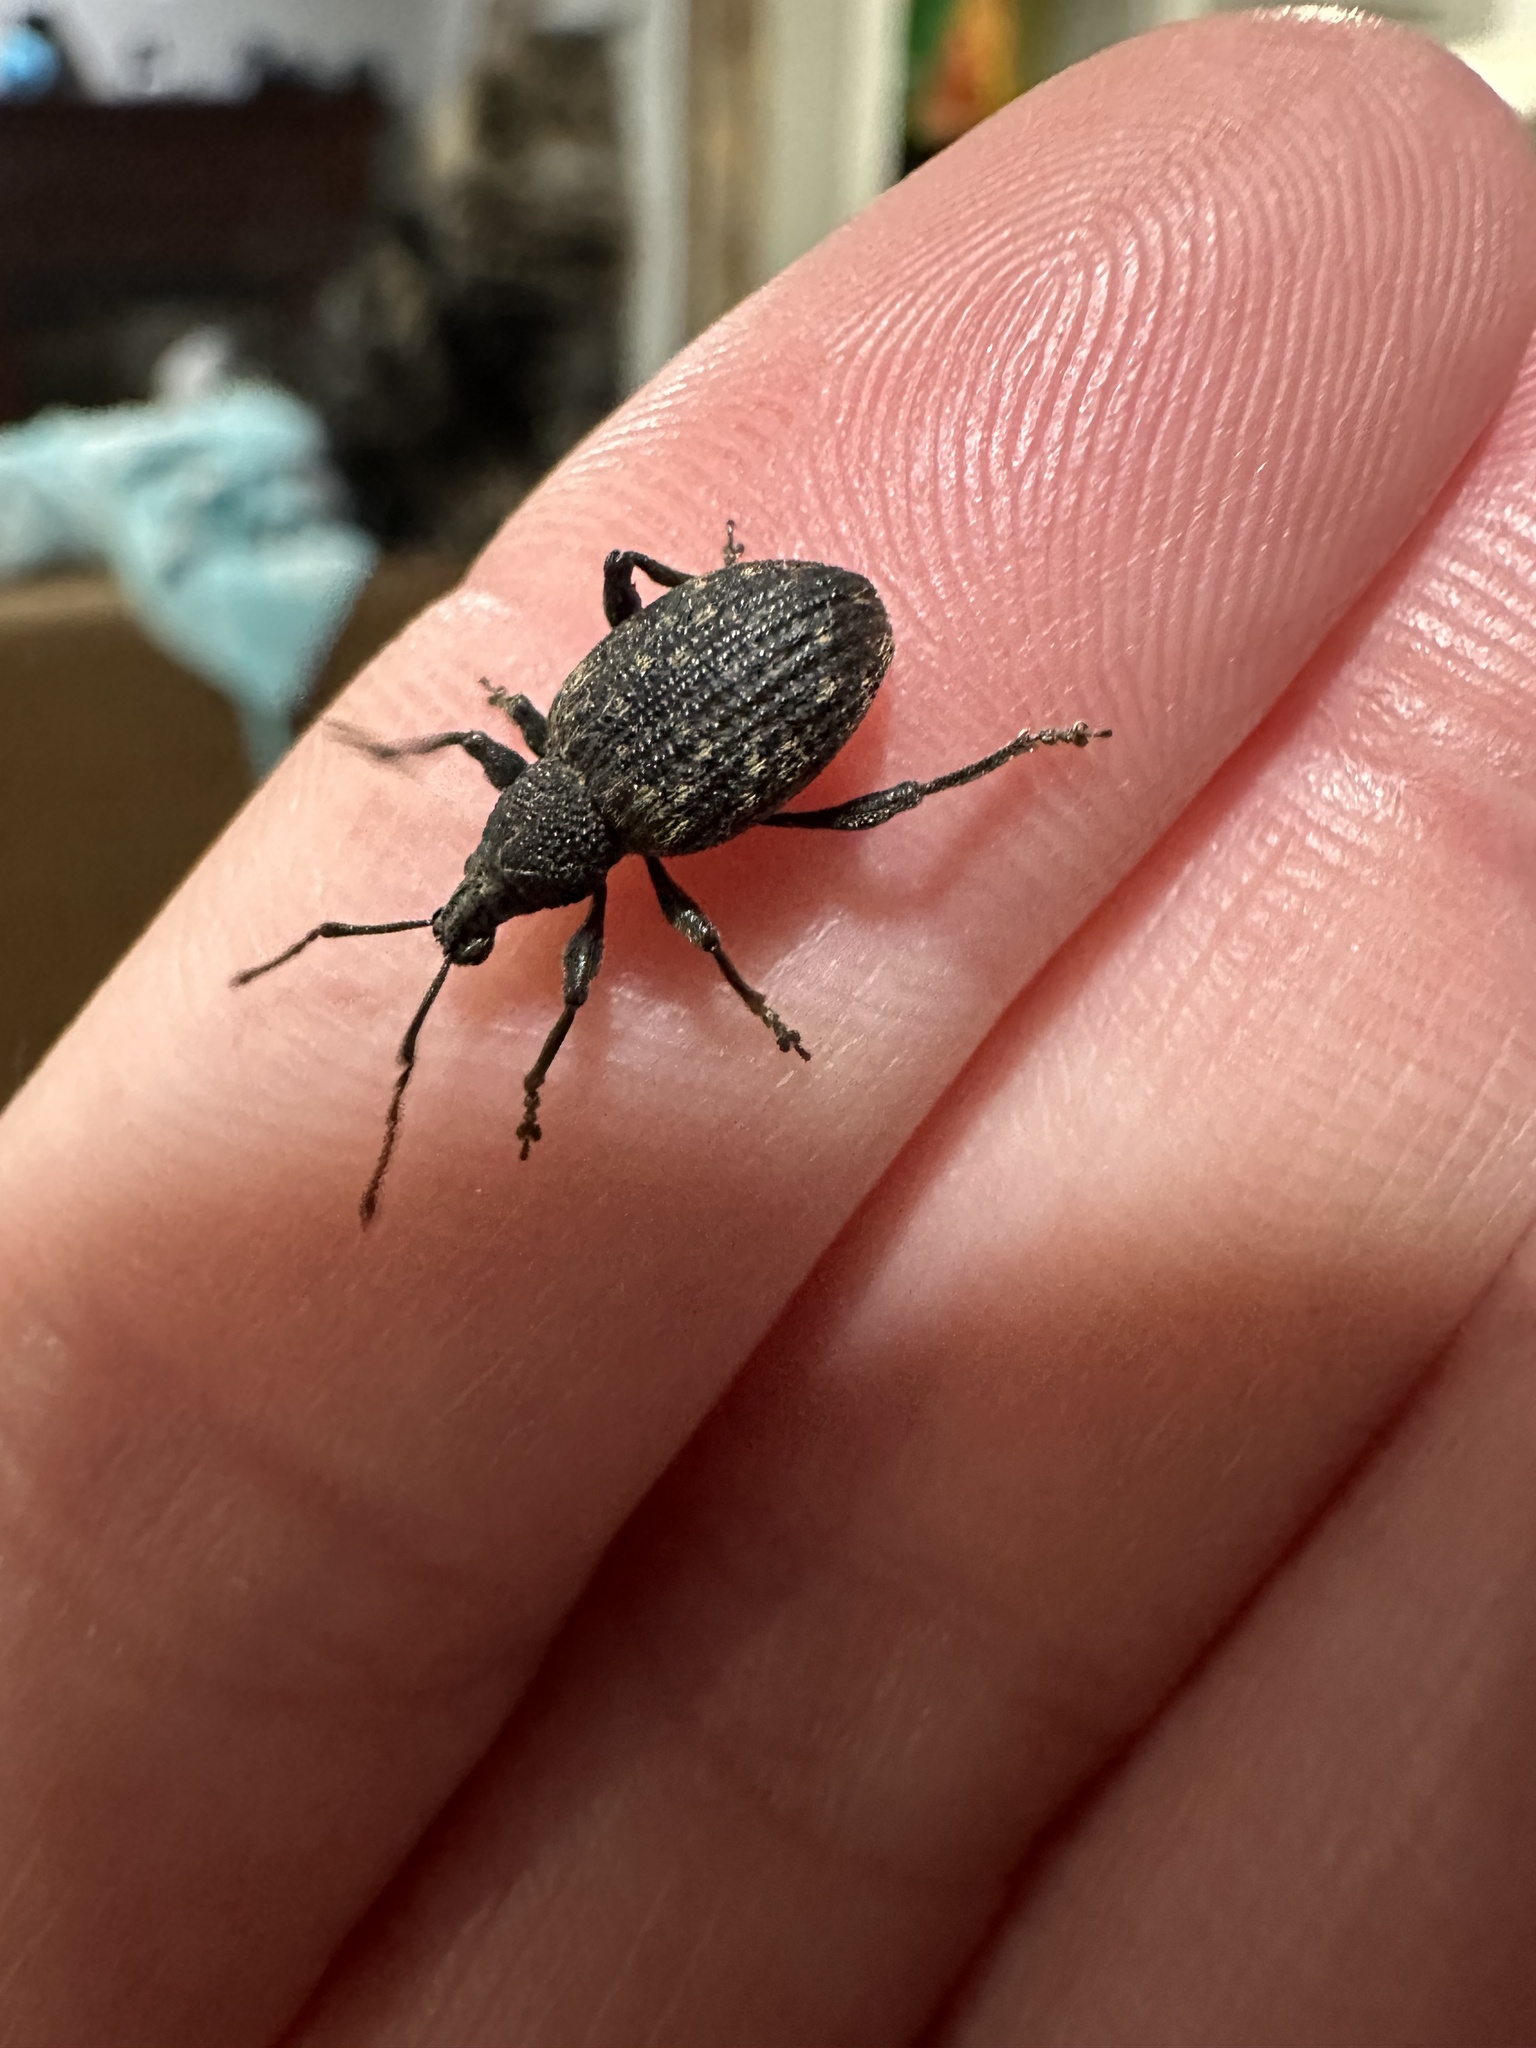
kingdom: Animalia
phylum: Arthropoda
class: Insecta
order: Coleoptera
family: Curculionidae
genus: Otiorhynchus
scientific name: Otiorhynchus sulcatus
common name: Black vine weevil
